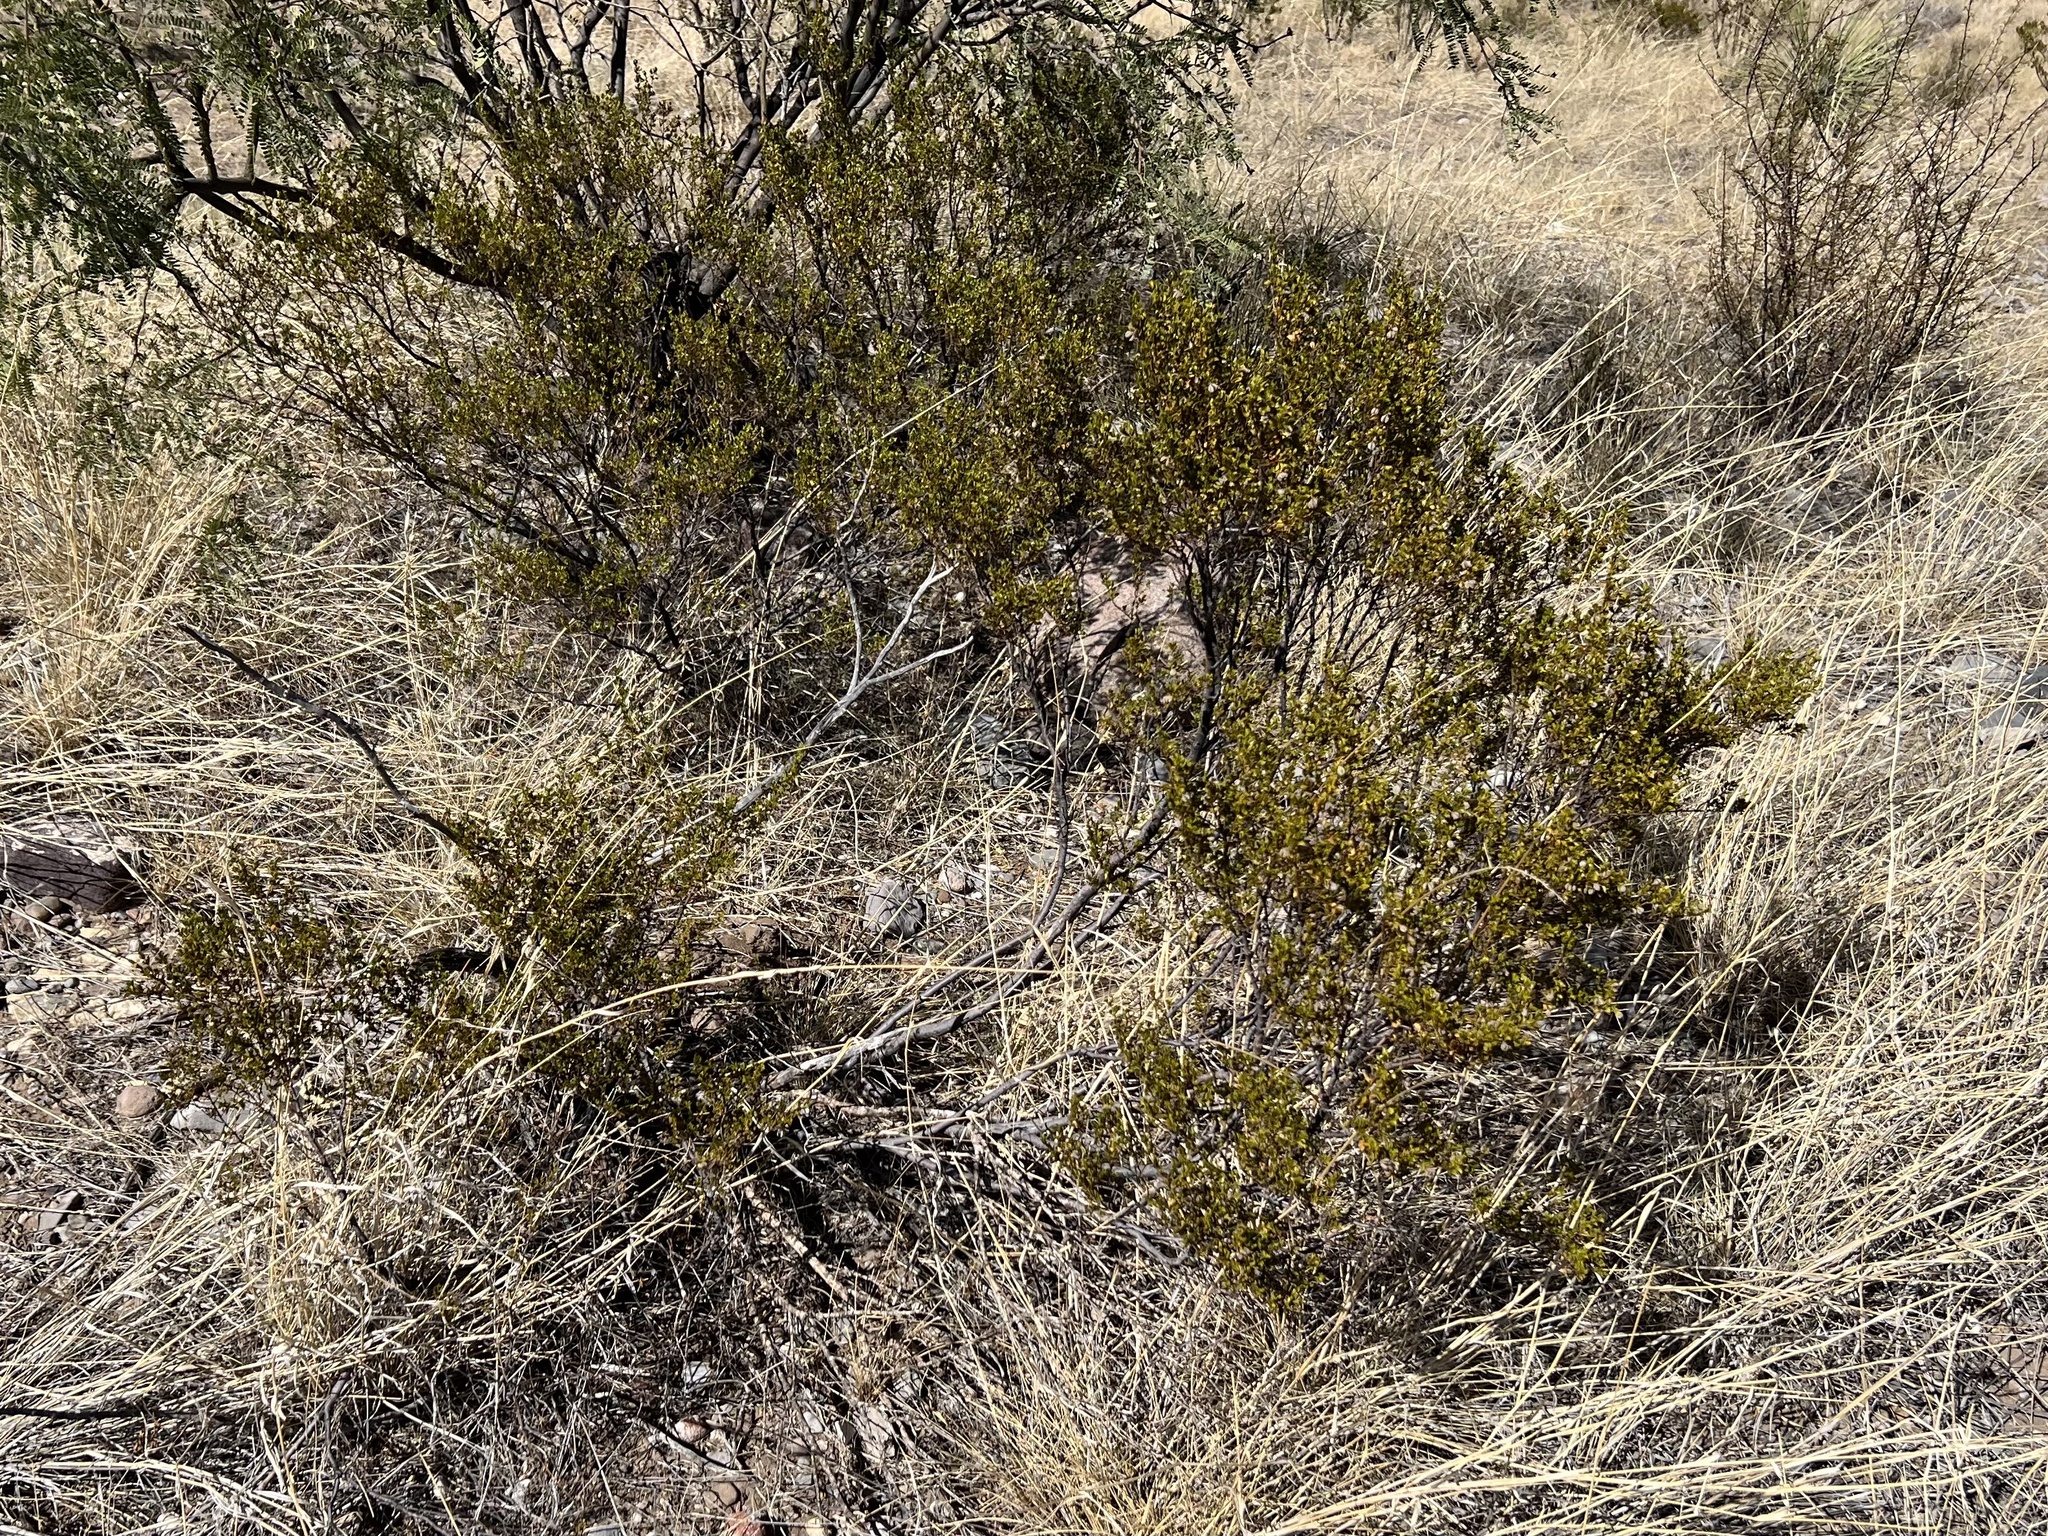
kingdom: Plantae
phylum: Tracheophyta
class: Magnoliopsida
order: Zygophyllales
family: Zygophyllaceae
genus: Larrea
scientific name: Larrea tridentata
